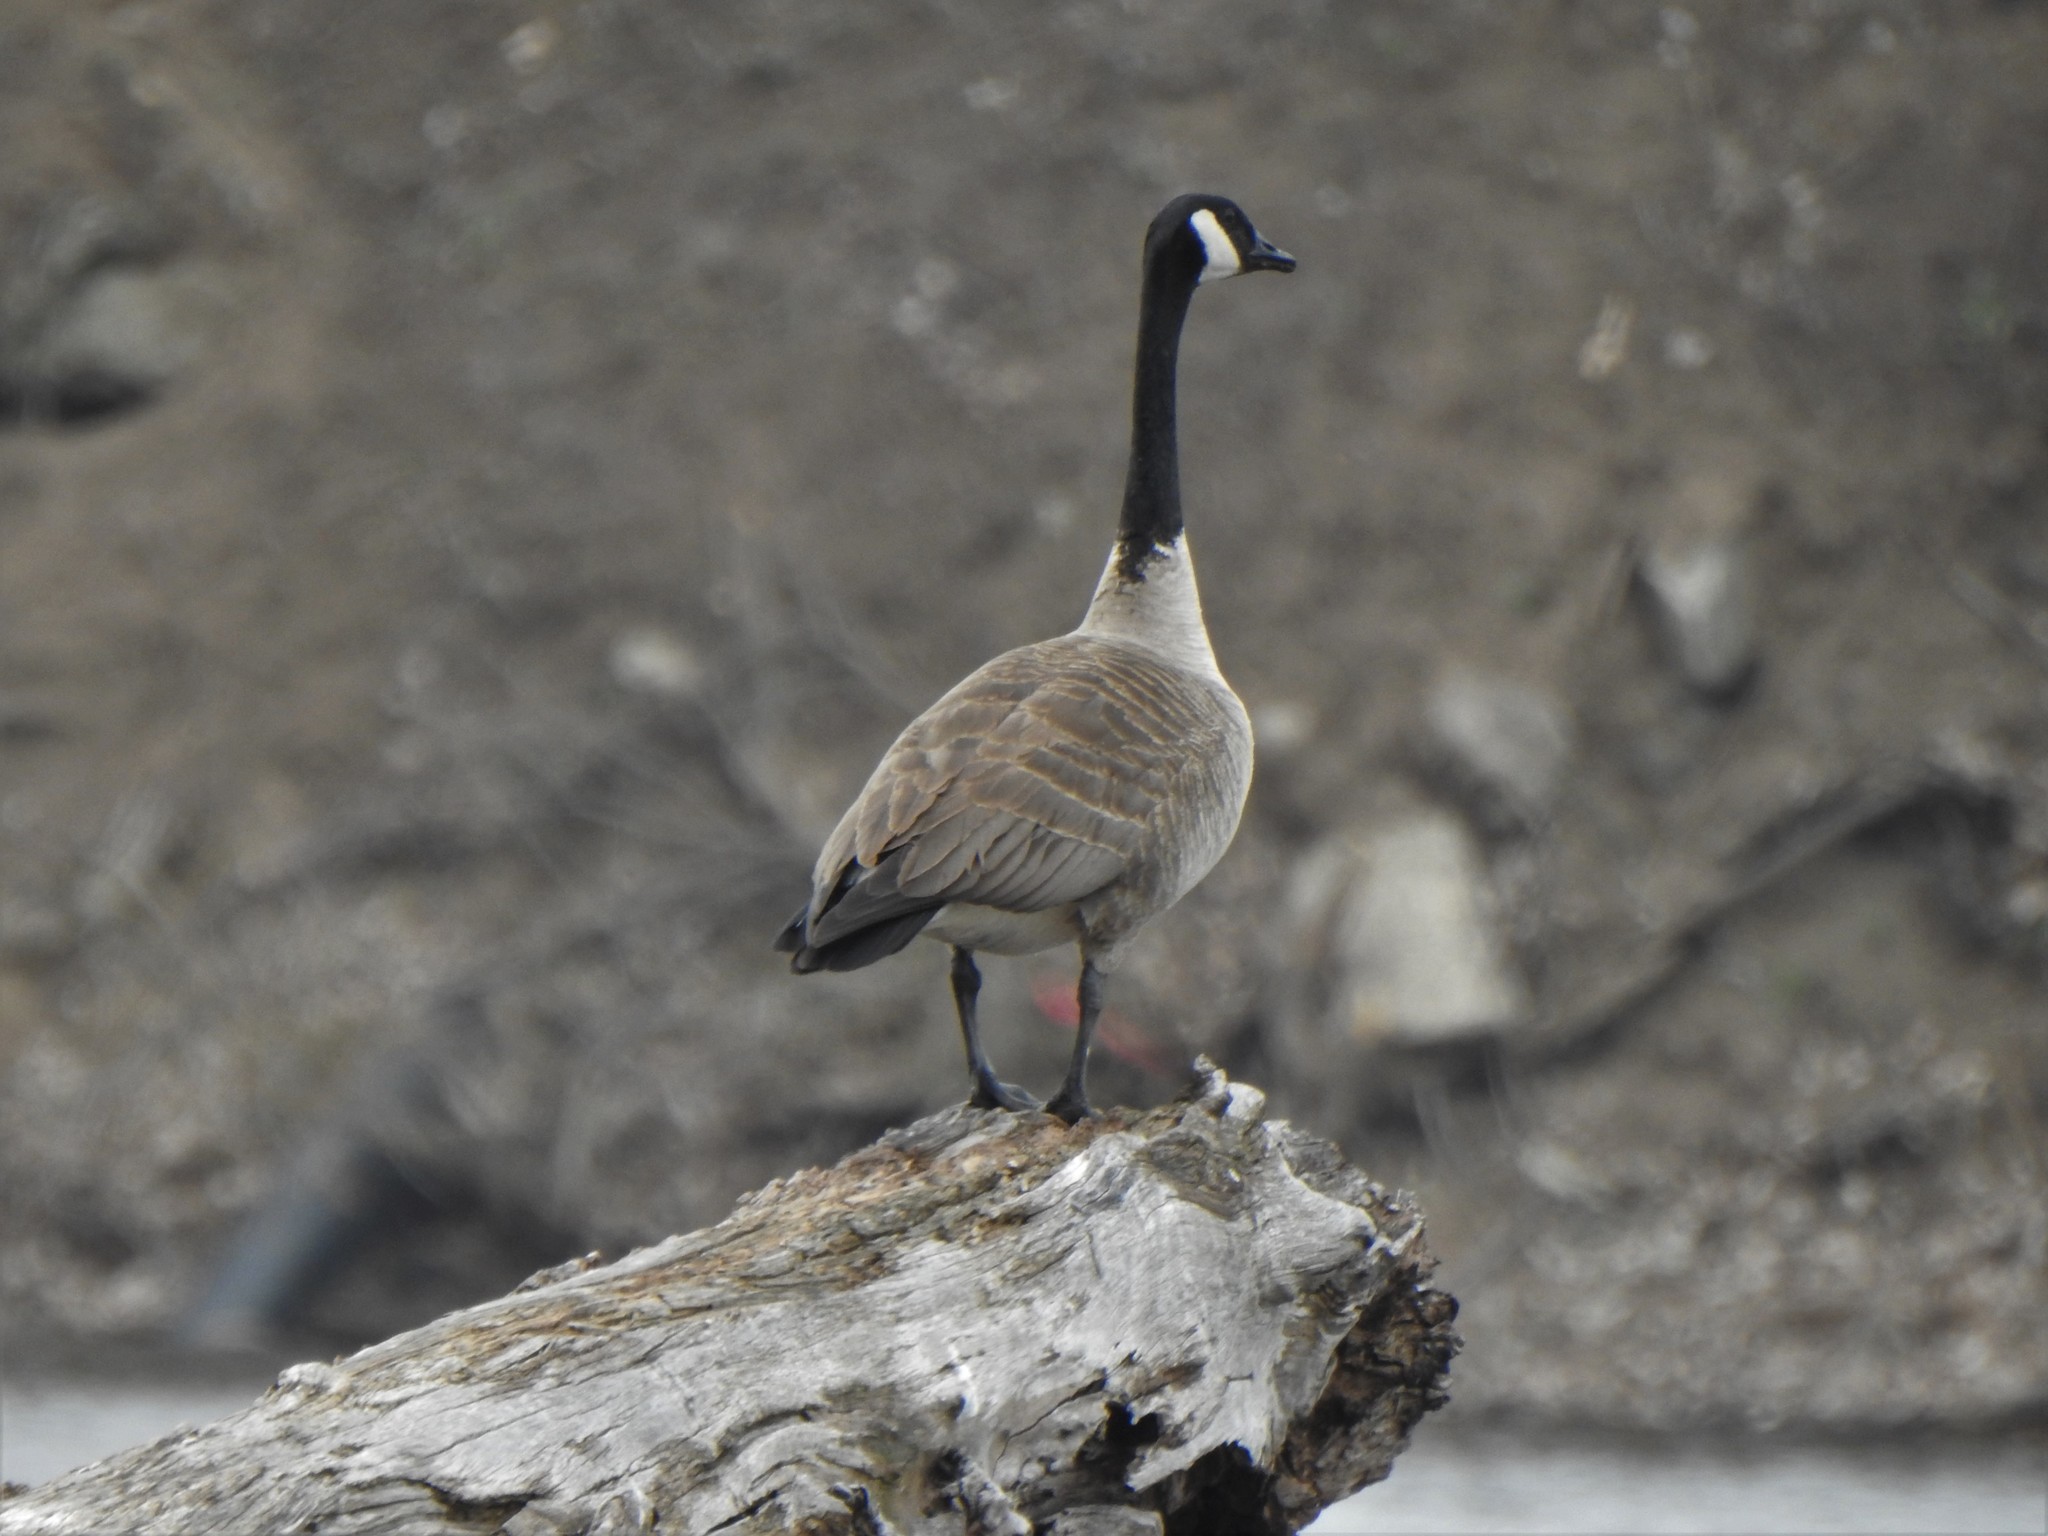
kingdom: Animalia
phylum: Chordata
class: Aves
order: Anseriformes
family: Anatidae
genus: Branta
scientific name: Branta canadensis
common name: Canada goose
